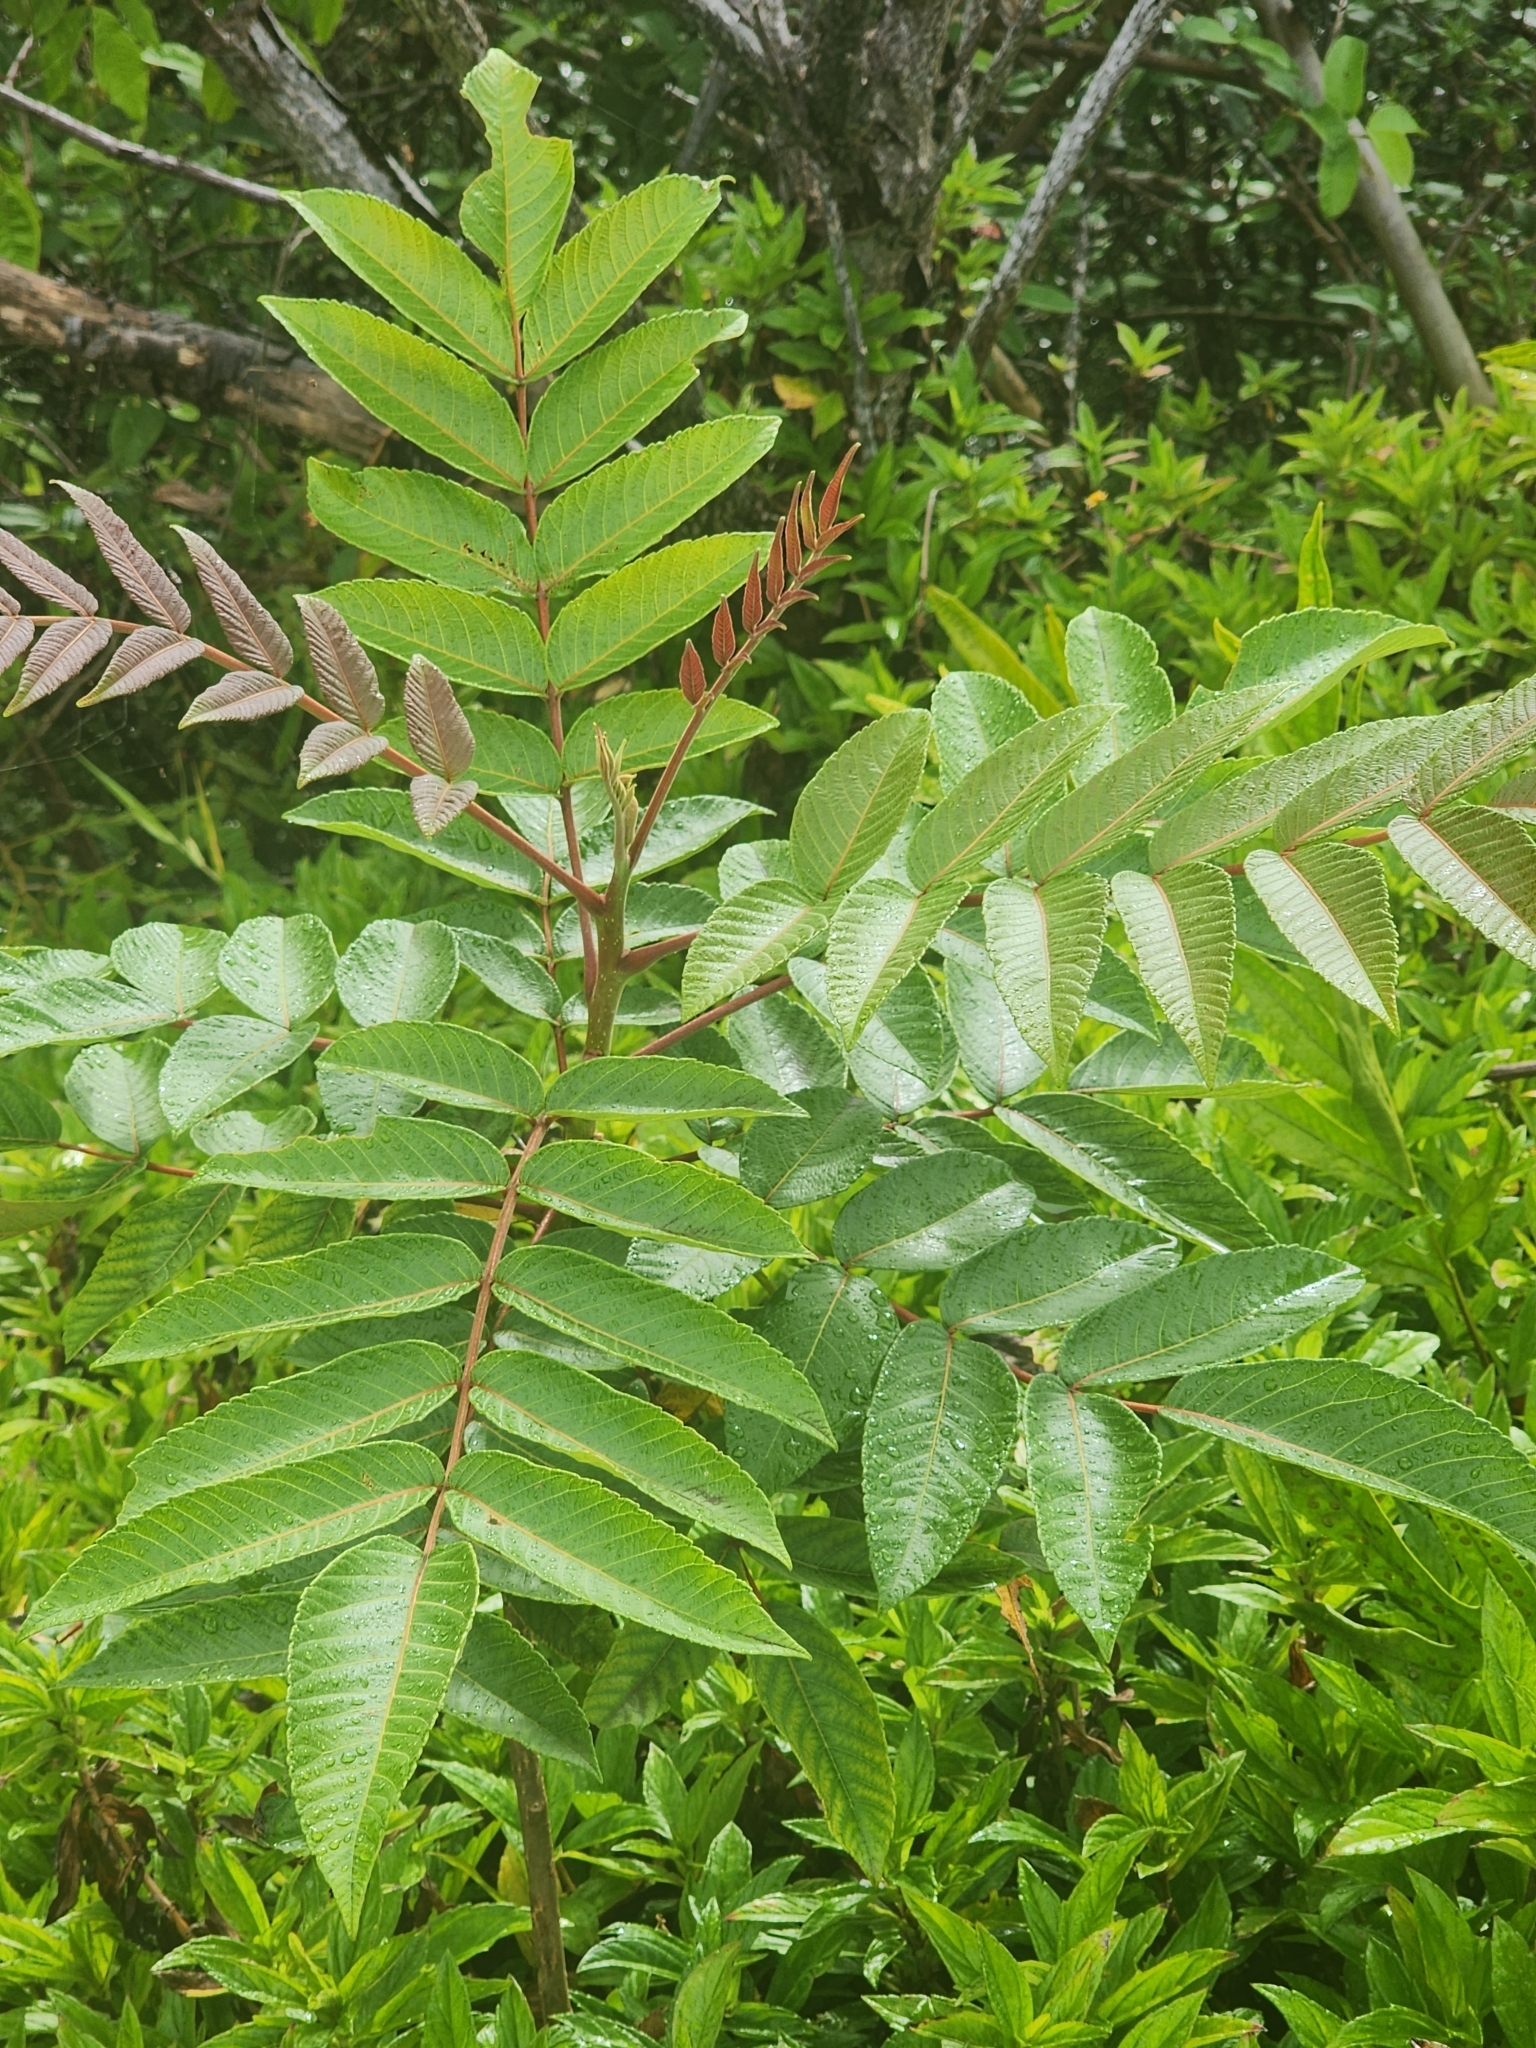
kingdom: Plantae
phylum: Tracheophyta
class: Magnoliopsida
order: Sapindales
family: Anacardiaceae
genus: Rhus
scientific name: Rhus sandwicensis
